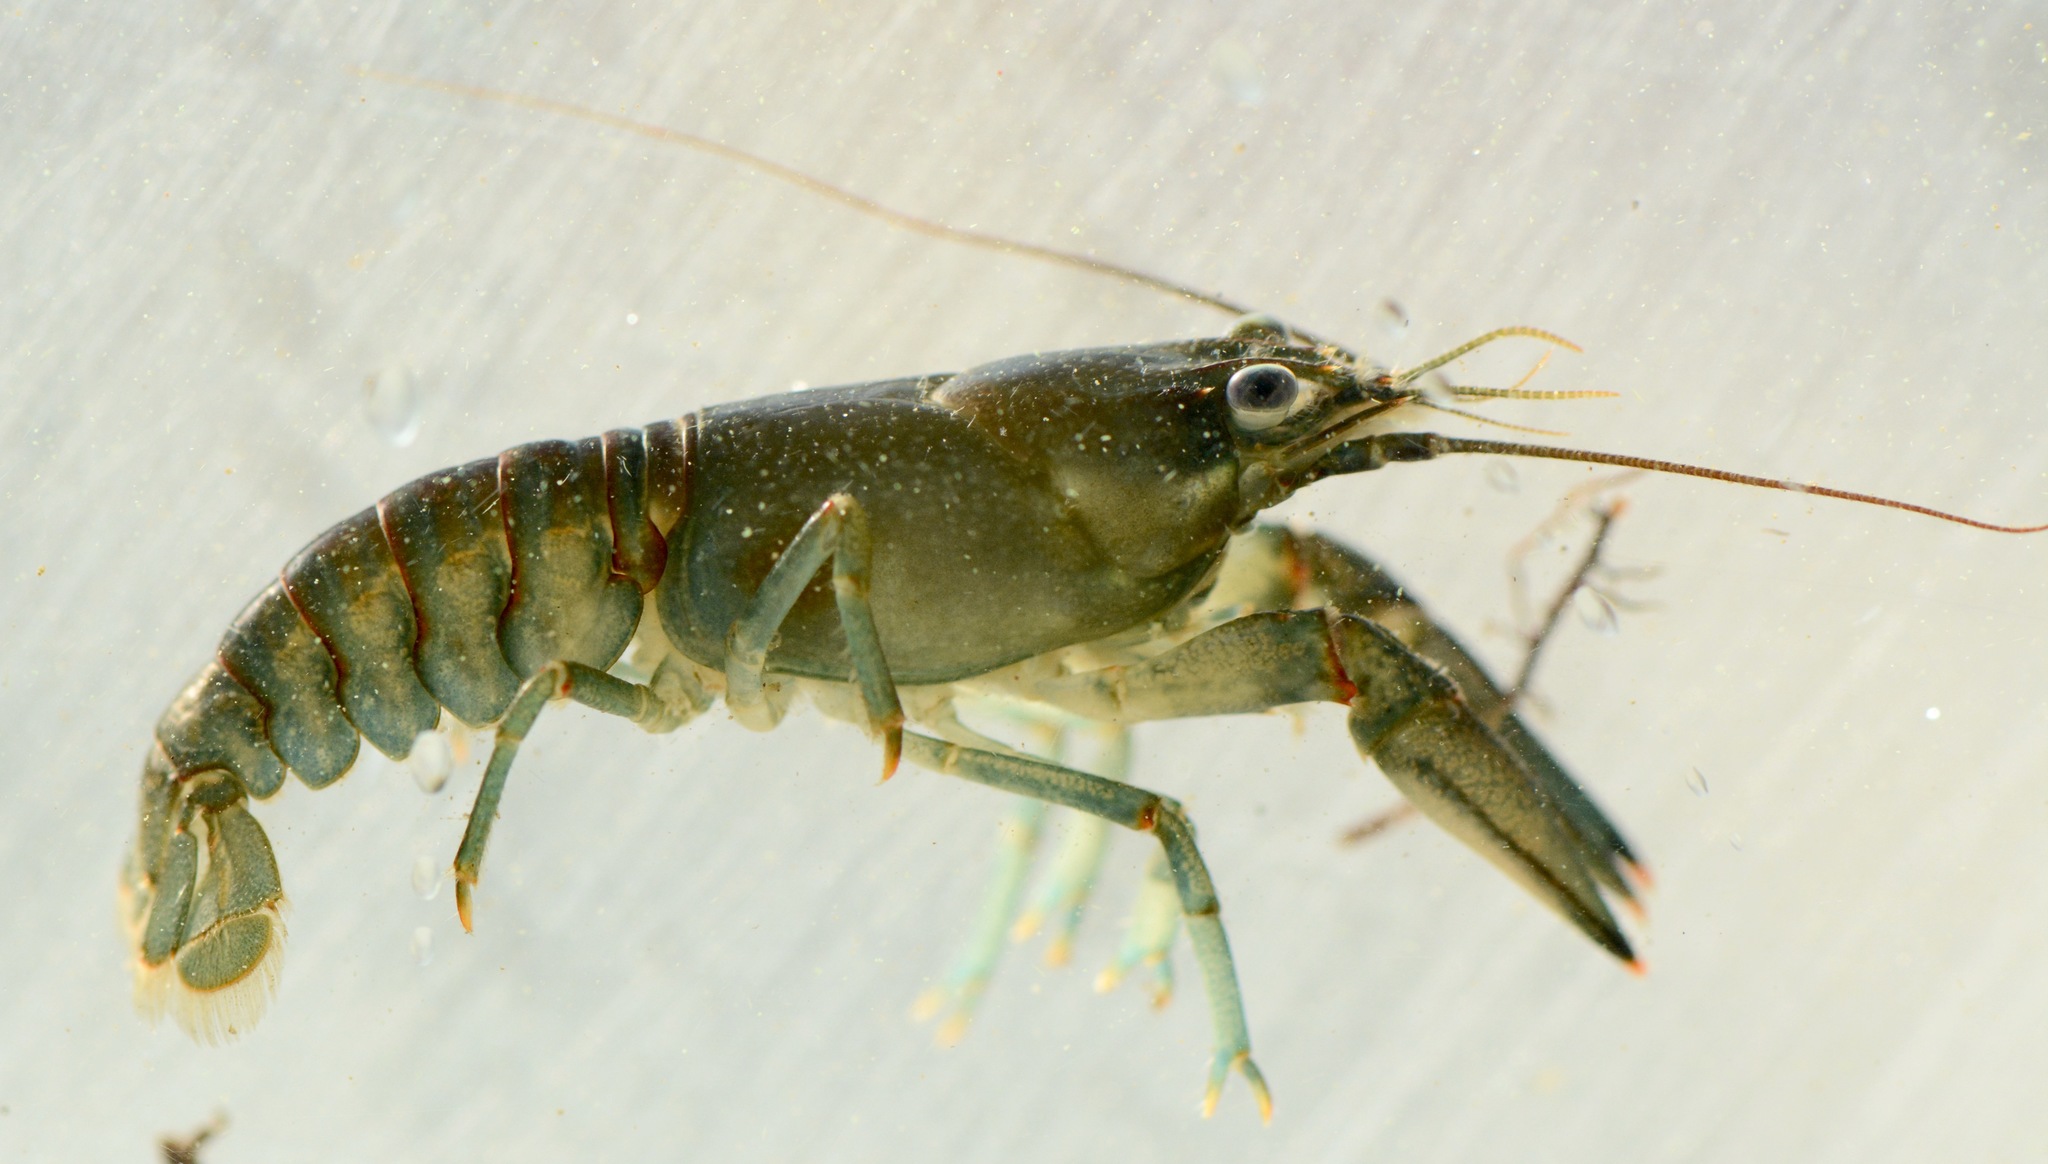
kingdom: Animalia
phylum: Arthropoda
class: Malacostraca
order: Decapoda
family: Cambaridae
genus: Faxonius
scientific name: Faxonius rusticus
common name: Rusty crayfish
